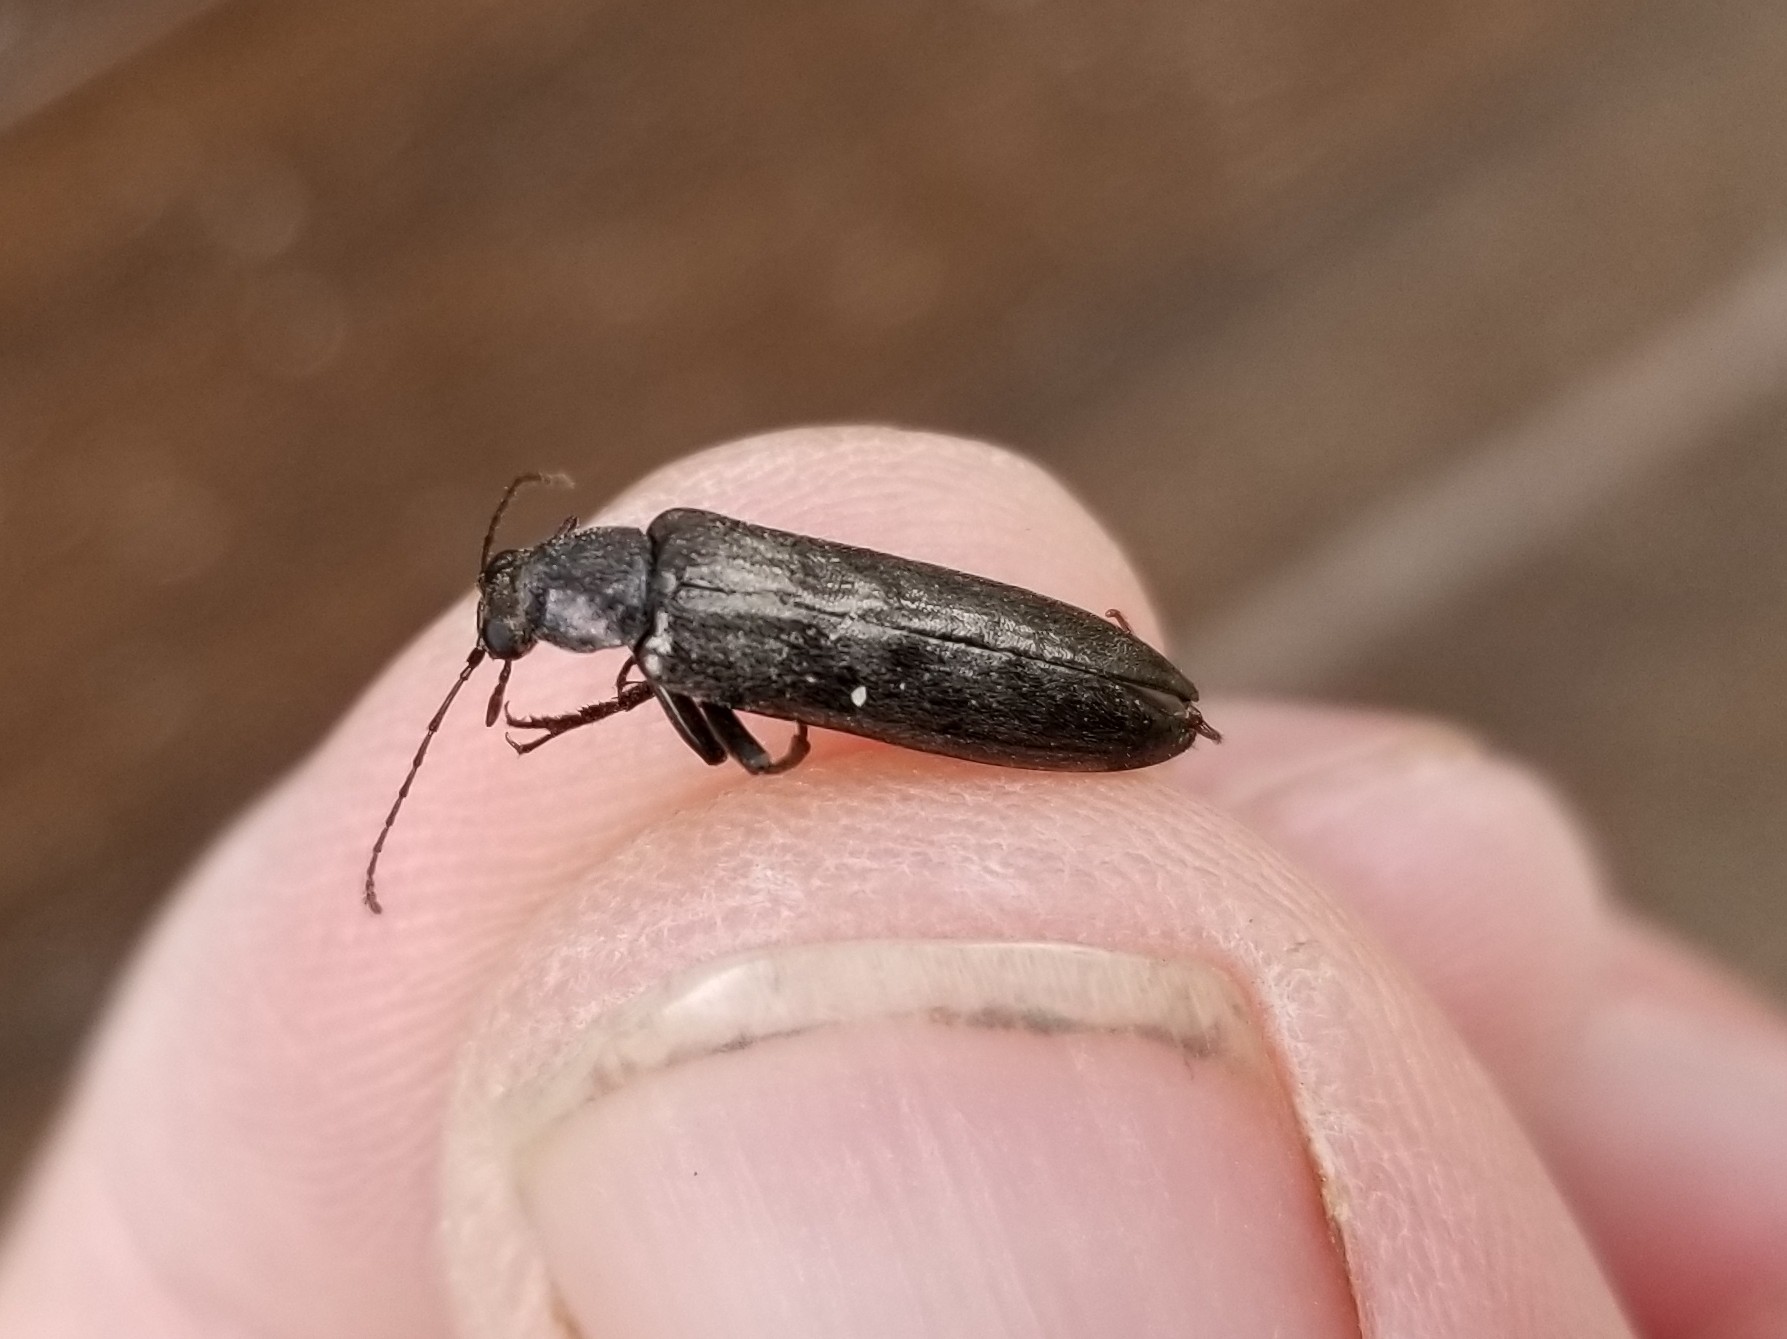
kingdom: Animalia
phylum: Arthropoda
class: Insecta
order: Coleoptera
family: Stenotrachelidae
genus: Stenotrachelus
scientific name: Stenotrachelus aeneus
